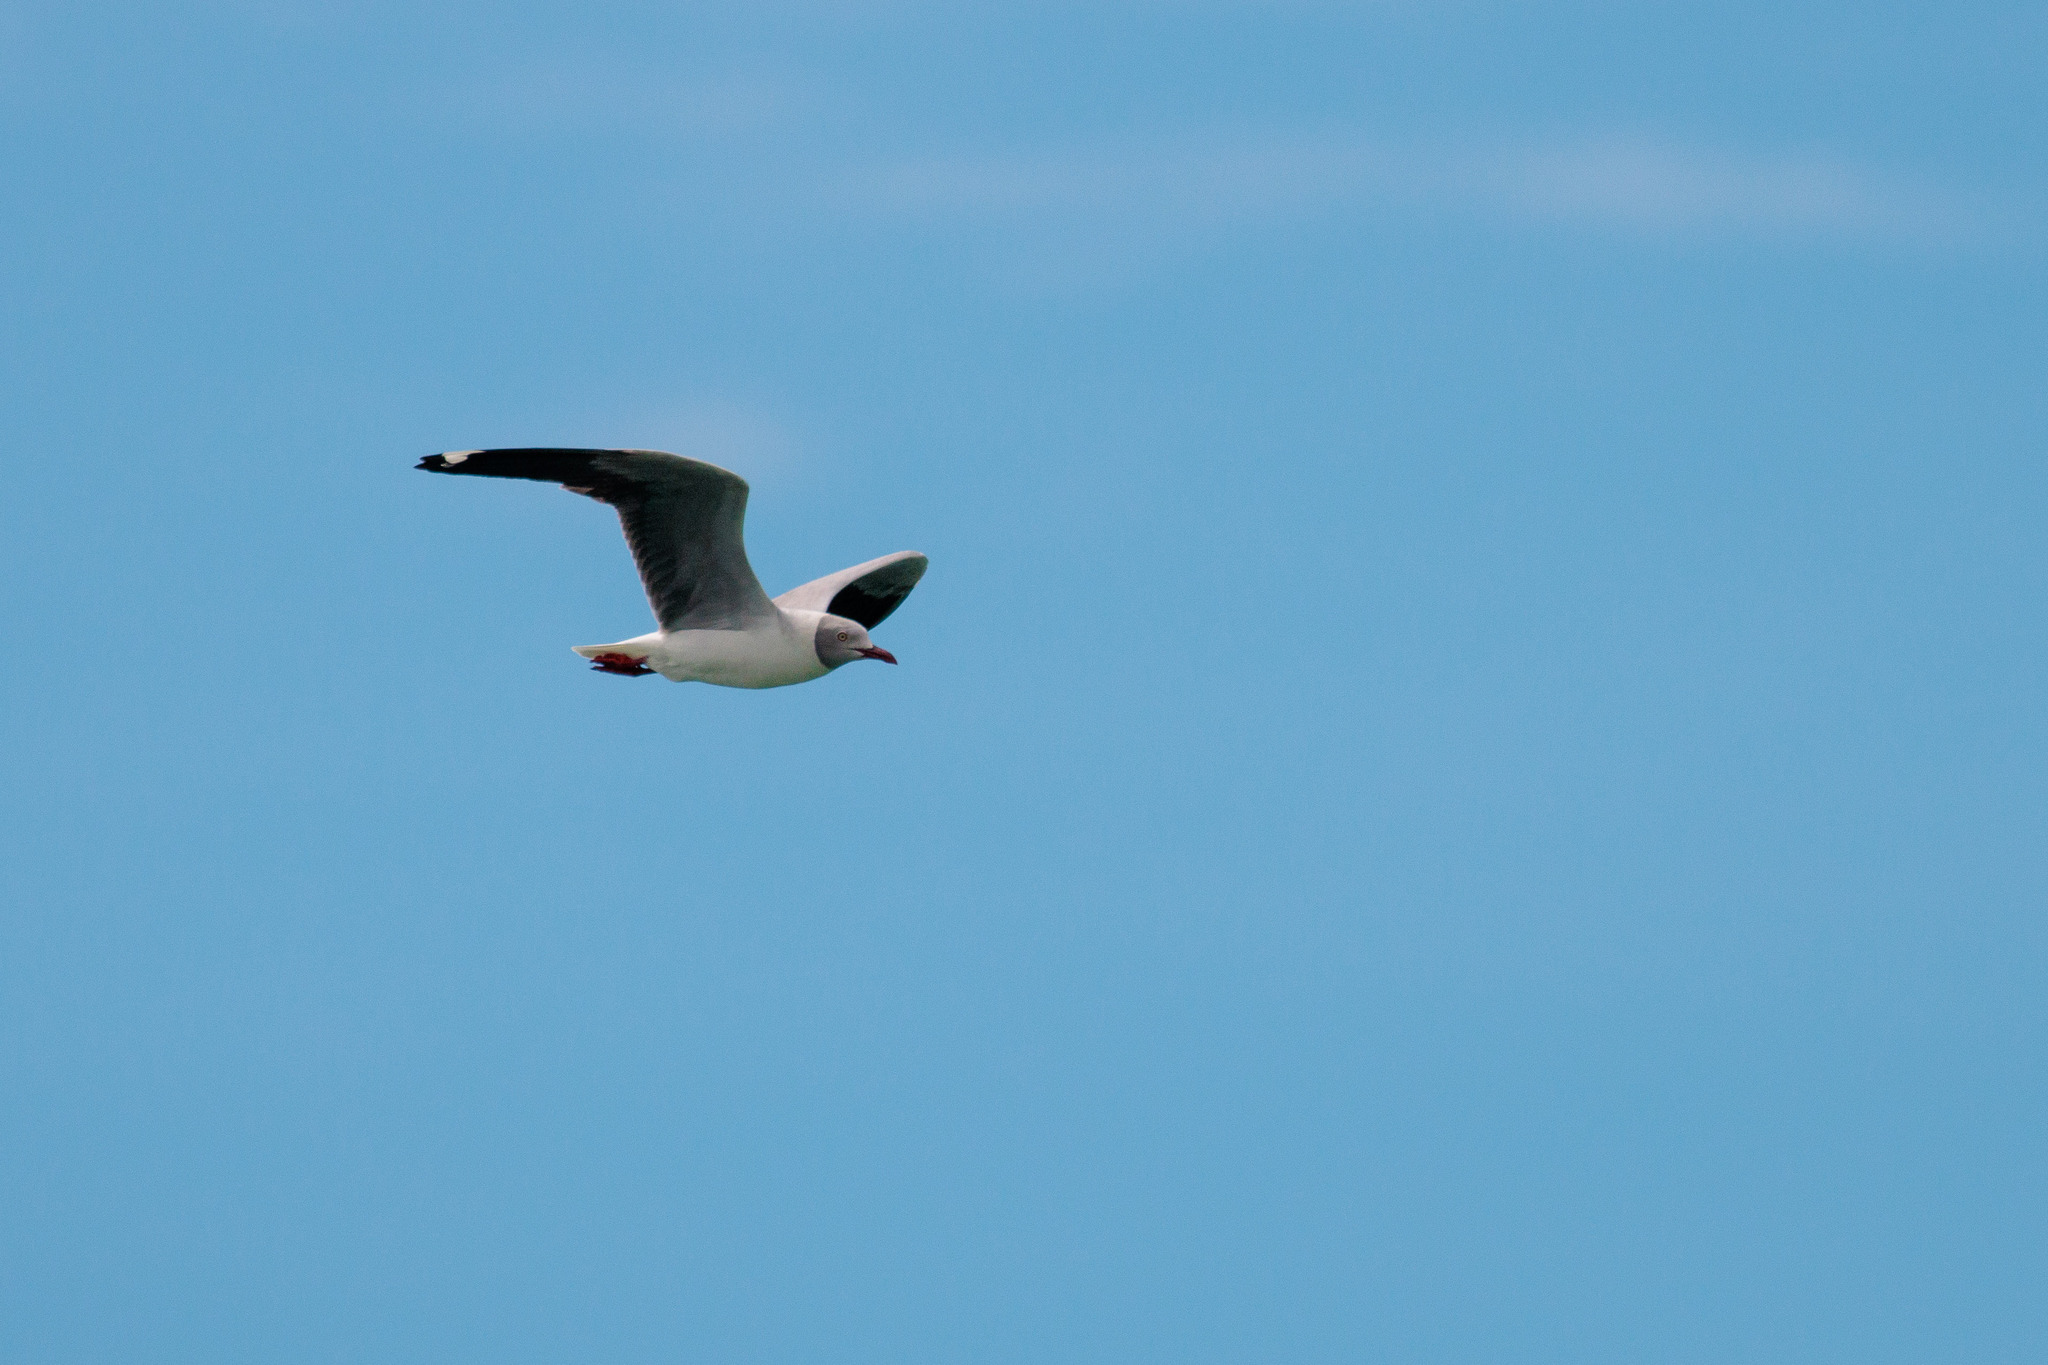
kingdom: Animalia
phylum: Chordata
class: Aves
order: Charadriiformes
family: Laridae
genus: Chroicocephalus
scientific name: Chroicocephalus cirrocephalus
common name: Grey-headed gull
